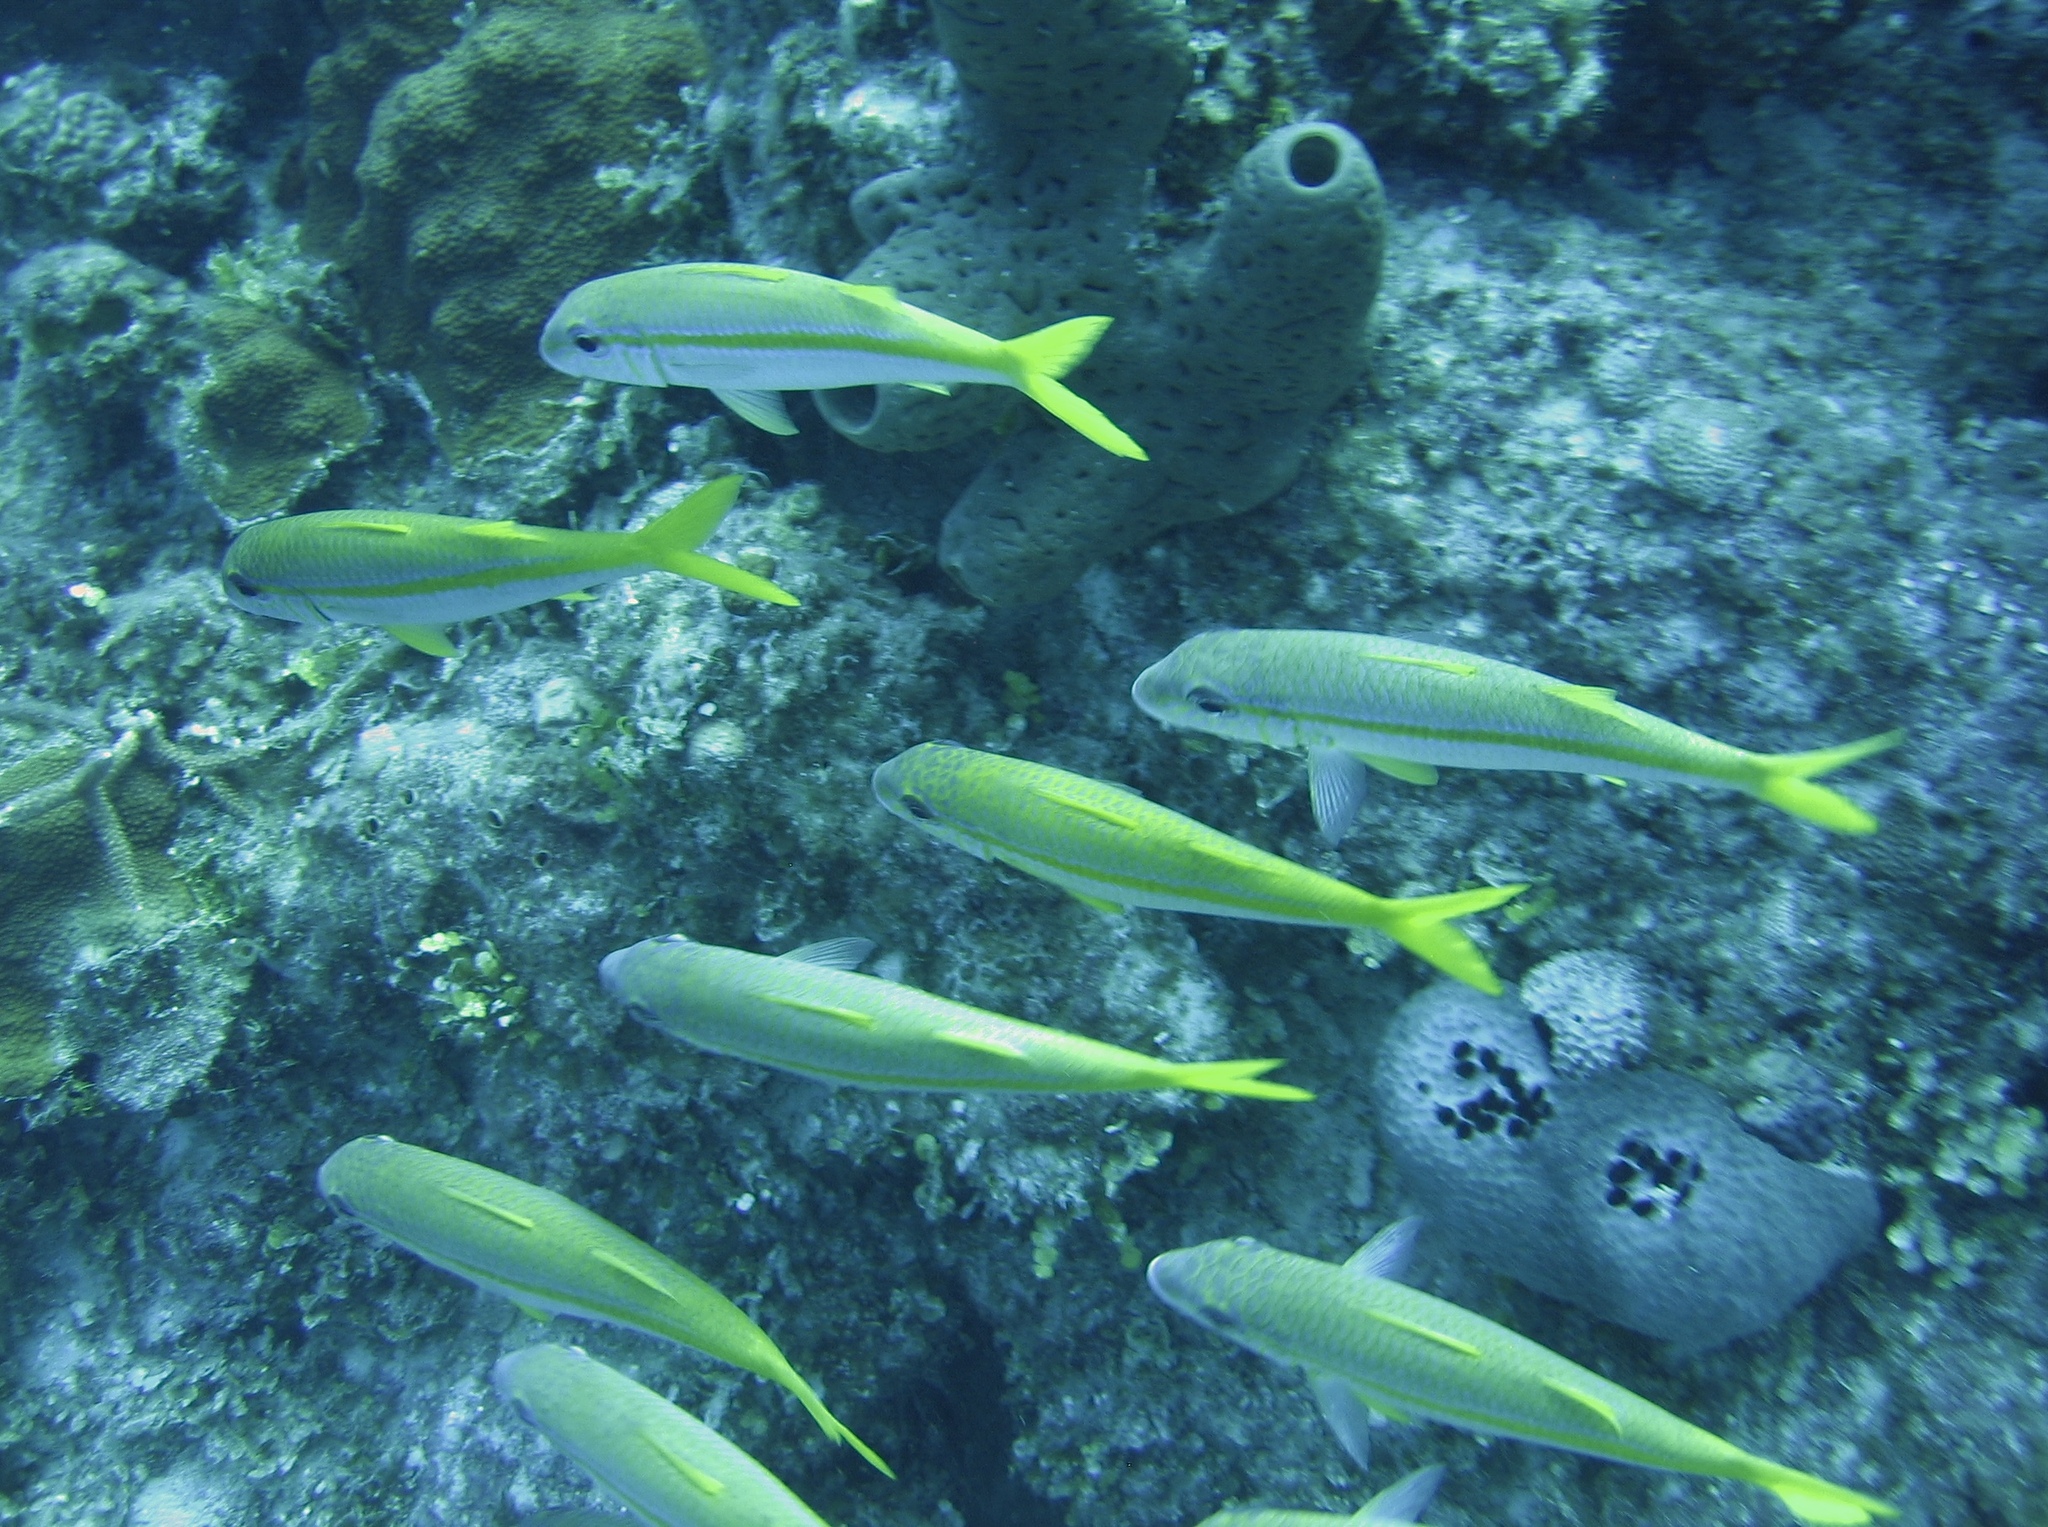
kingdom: Animalia
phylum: Chordata
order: Perciformes
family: Mullidae
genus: Mulloidichthys
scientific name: Mulloidichthys martinicus
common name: Yellow goatfish
